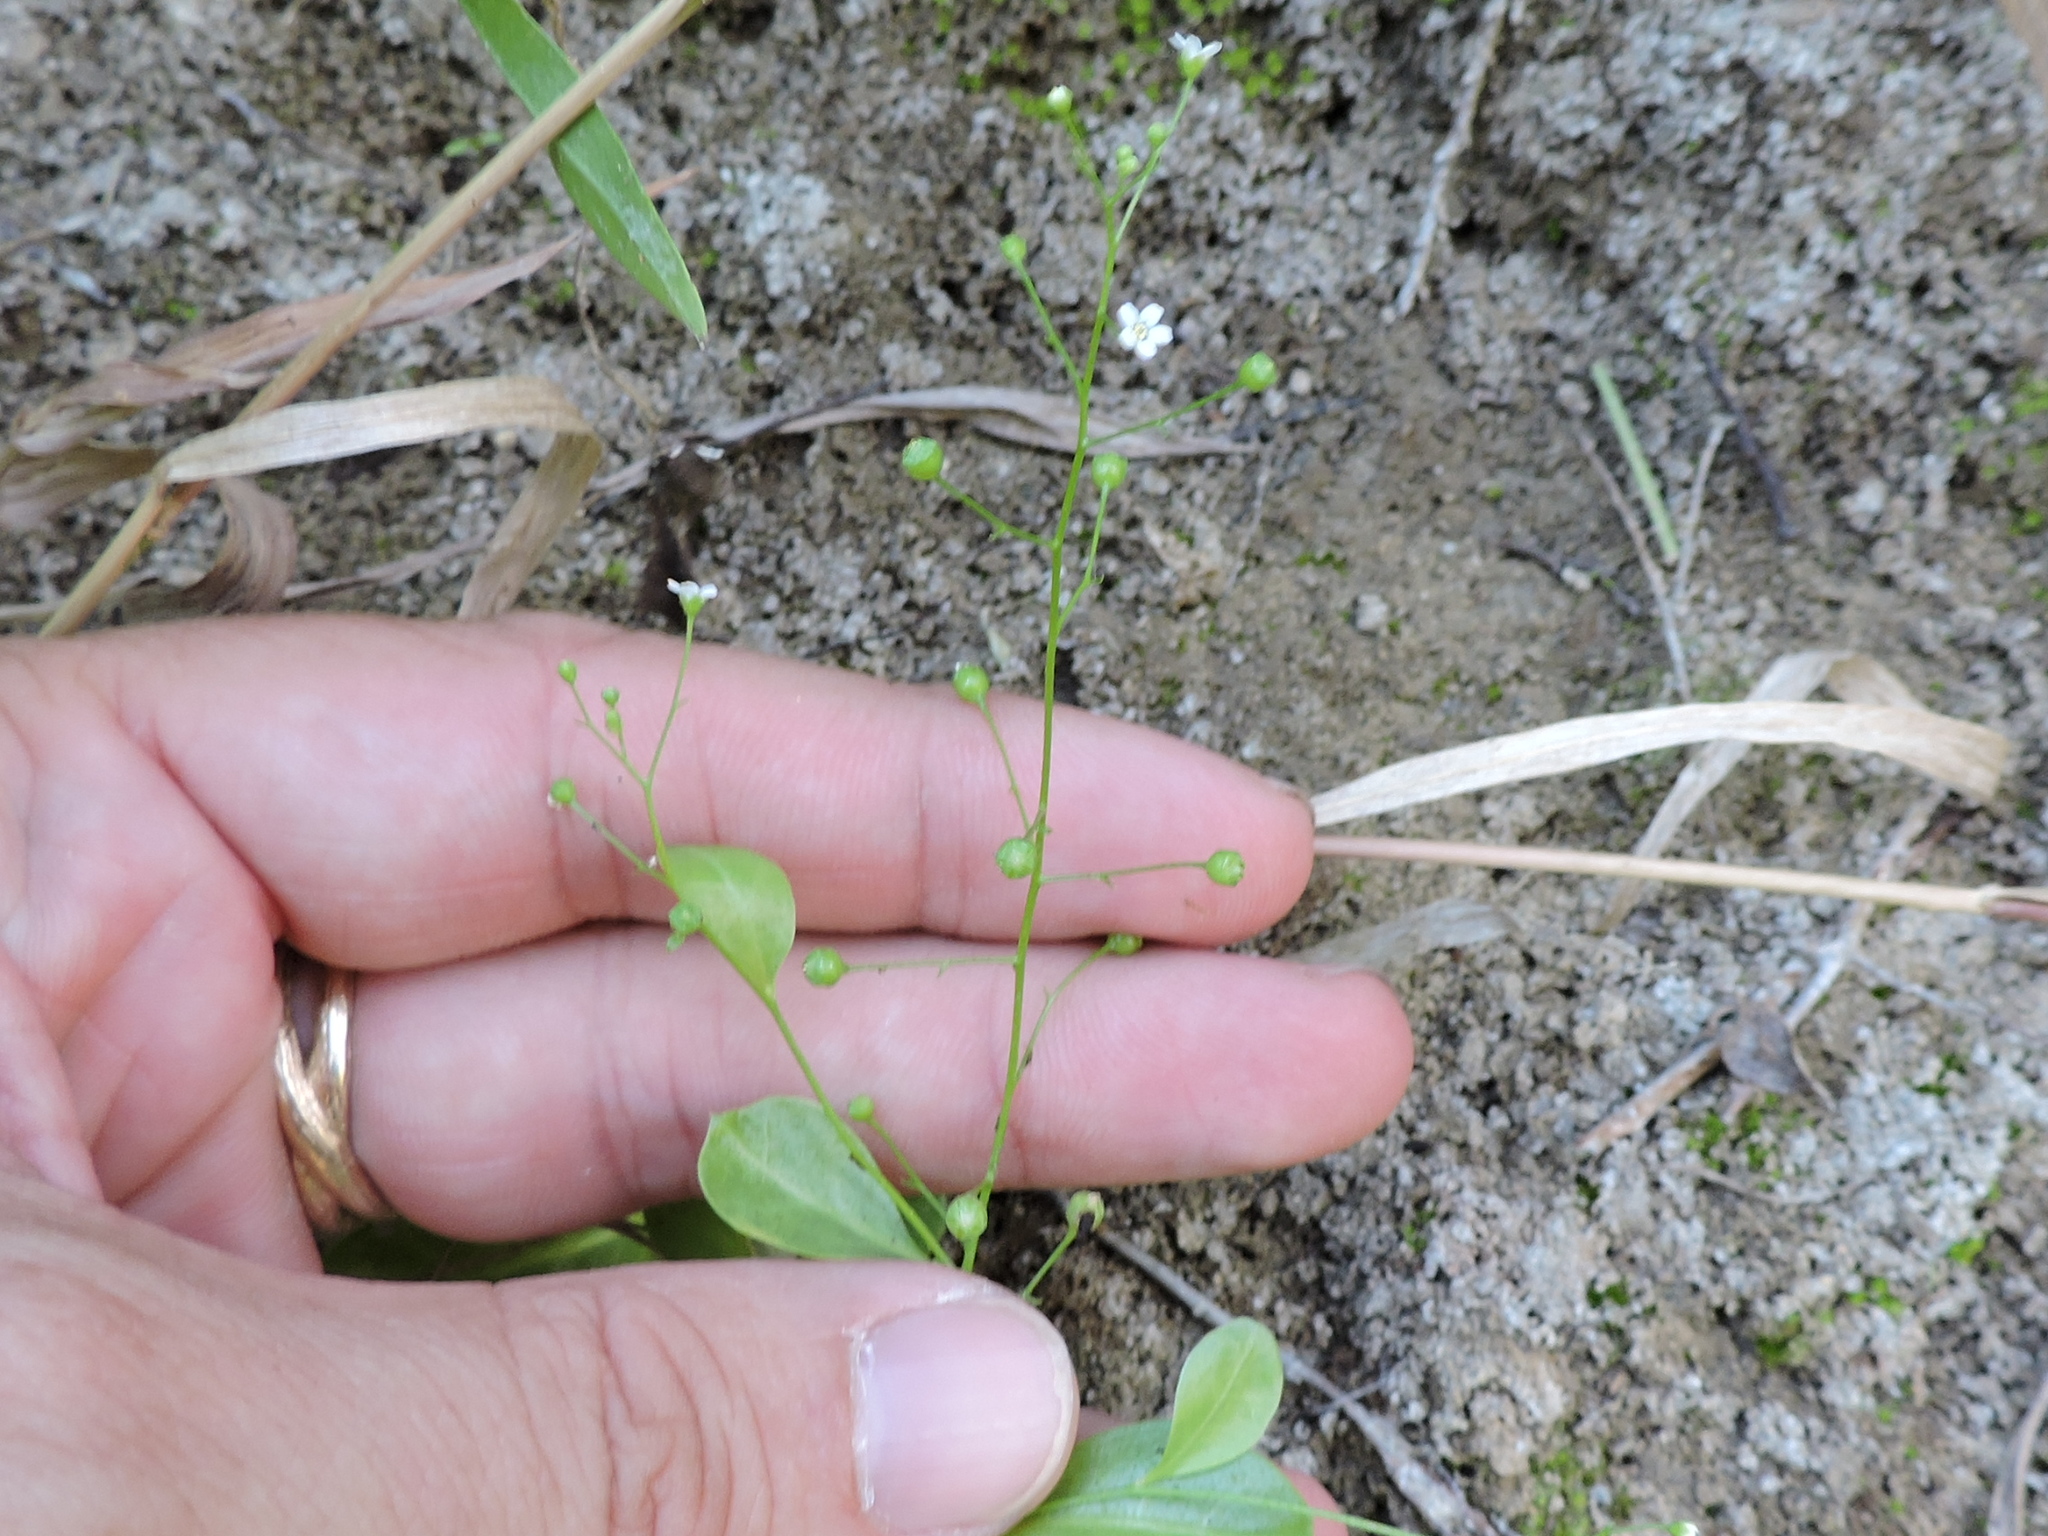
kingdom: Plantae
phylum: Tracheophyta
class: Magnoliopsida
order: Ericales
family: Primulaceae
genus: Samolus
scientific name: Samolus parviflorus
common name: False water pimpernel
